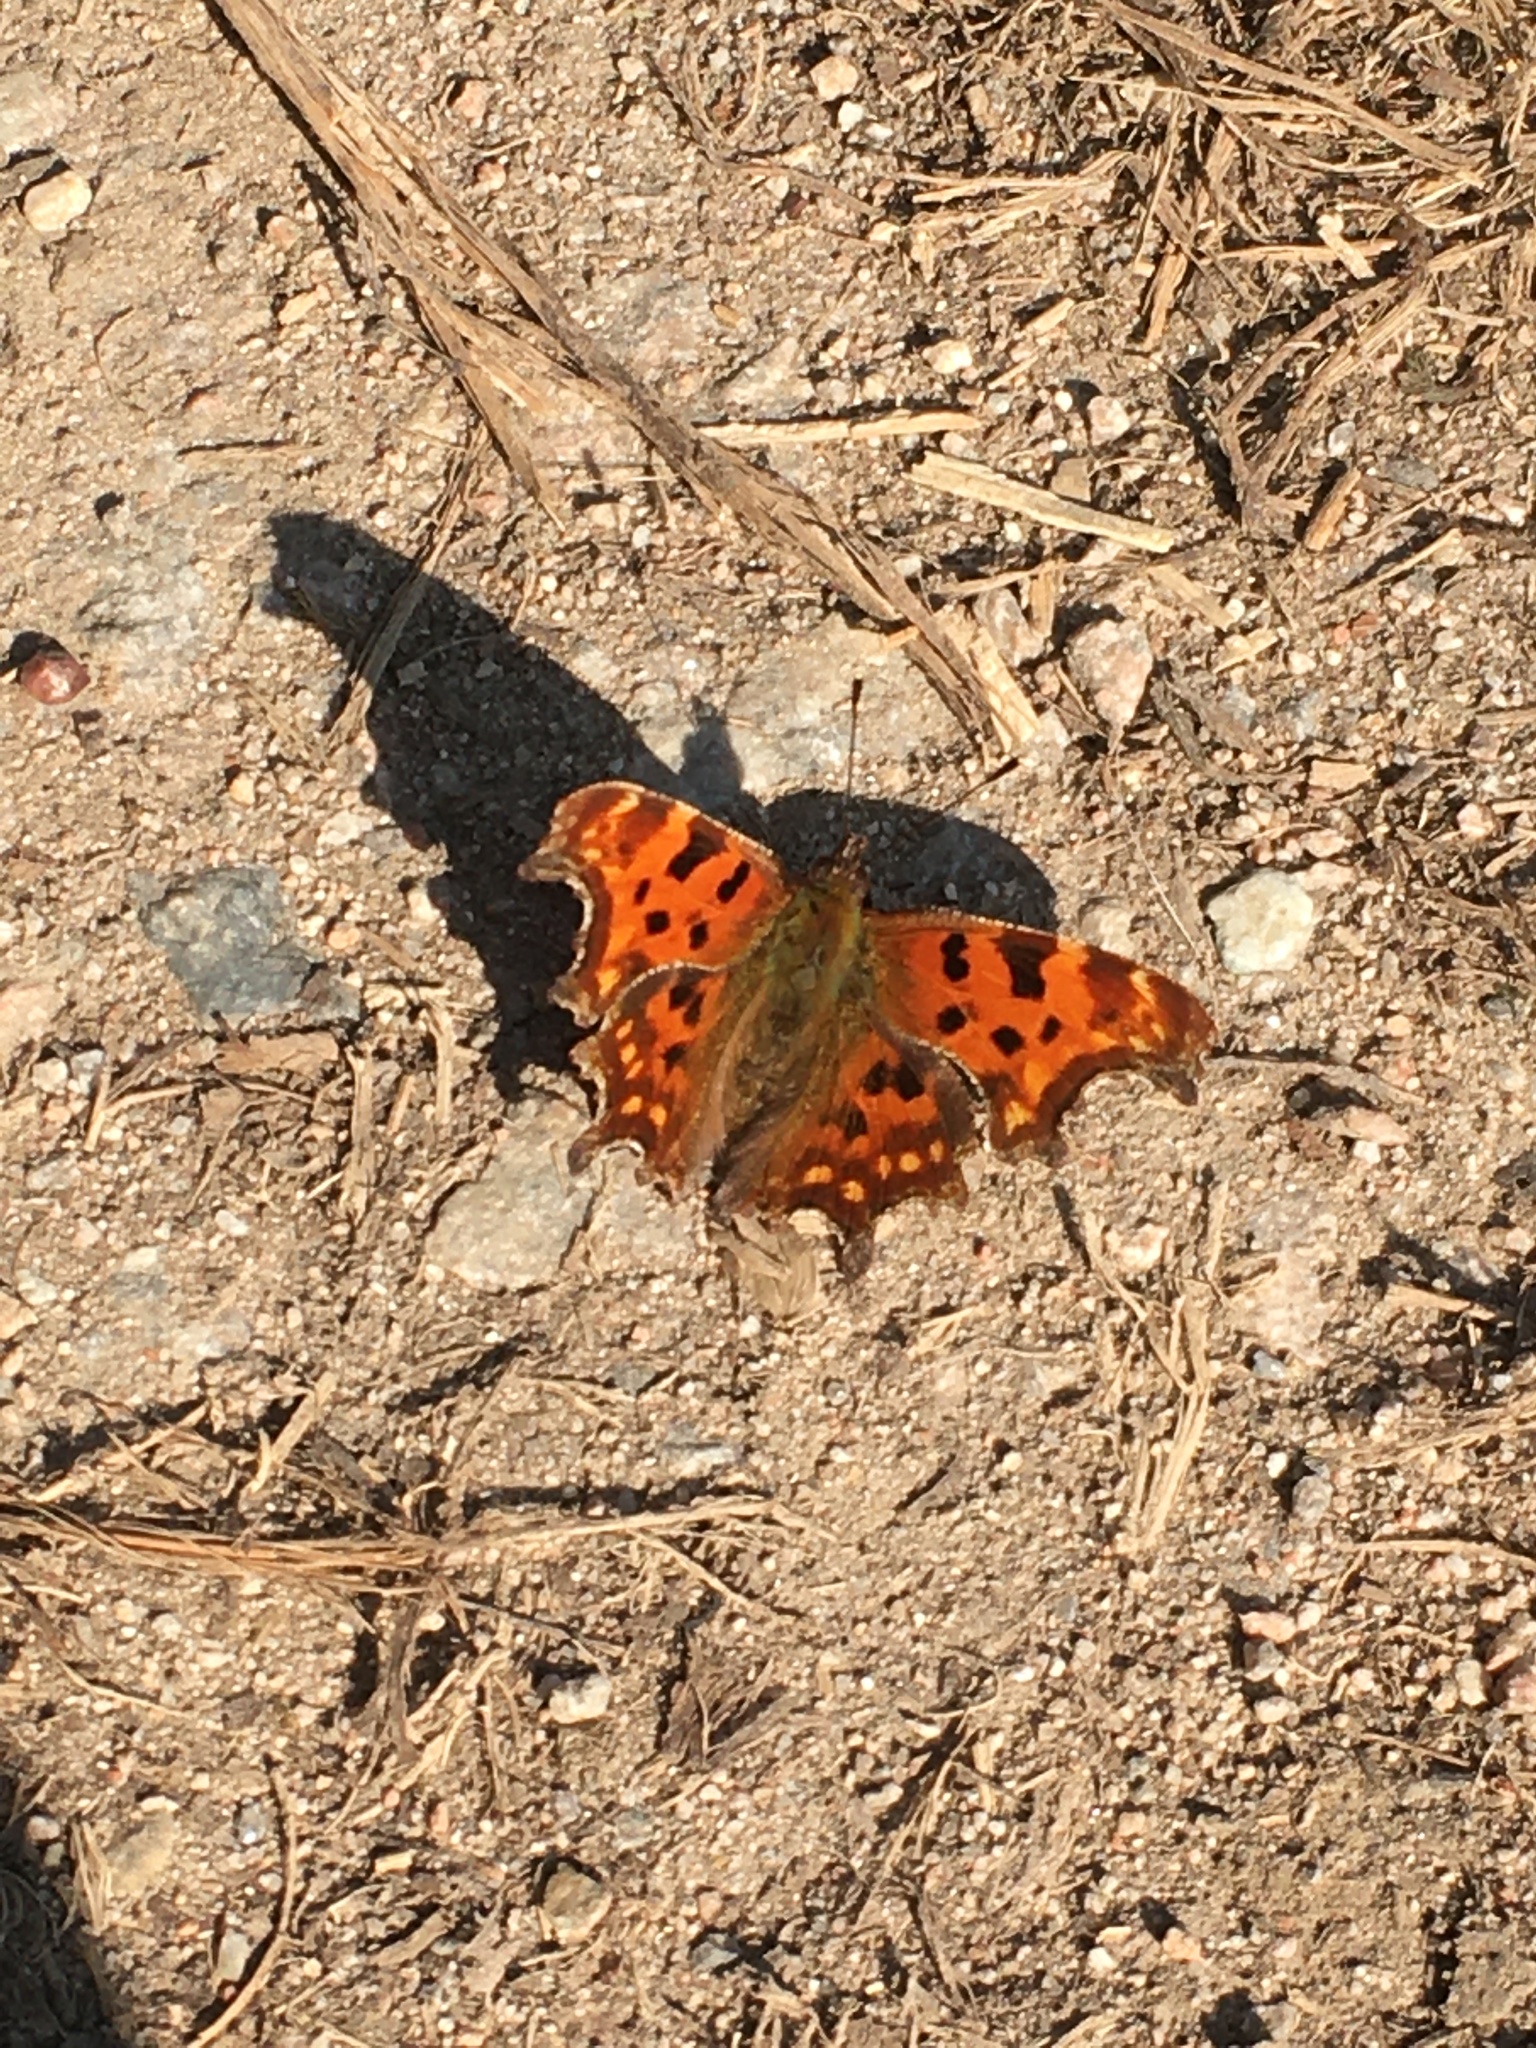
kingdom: Animalia
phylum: Arthropoda
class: Insecta
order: Lepidoptera
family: Nymphalidae
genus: Polygonia
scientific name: Polygonia c-album
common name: Comma
